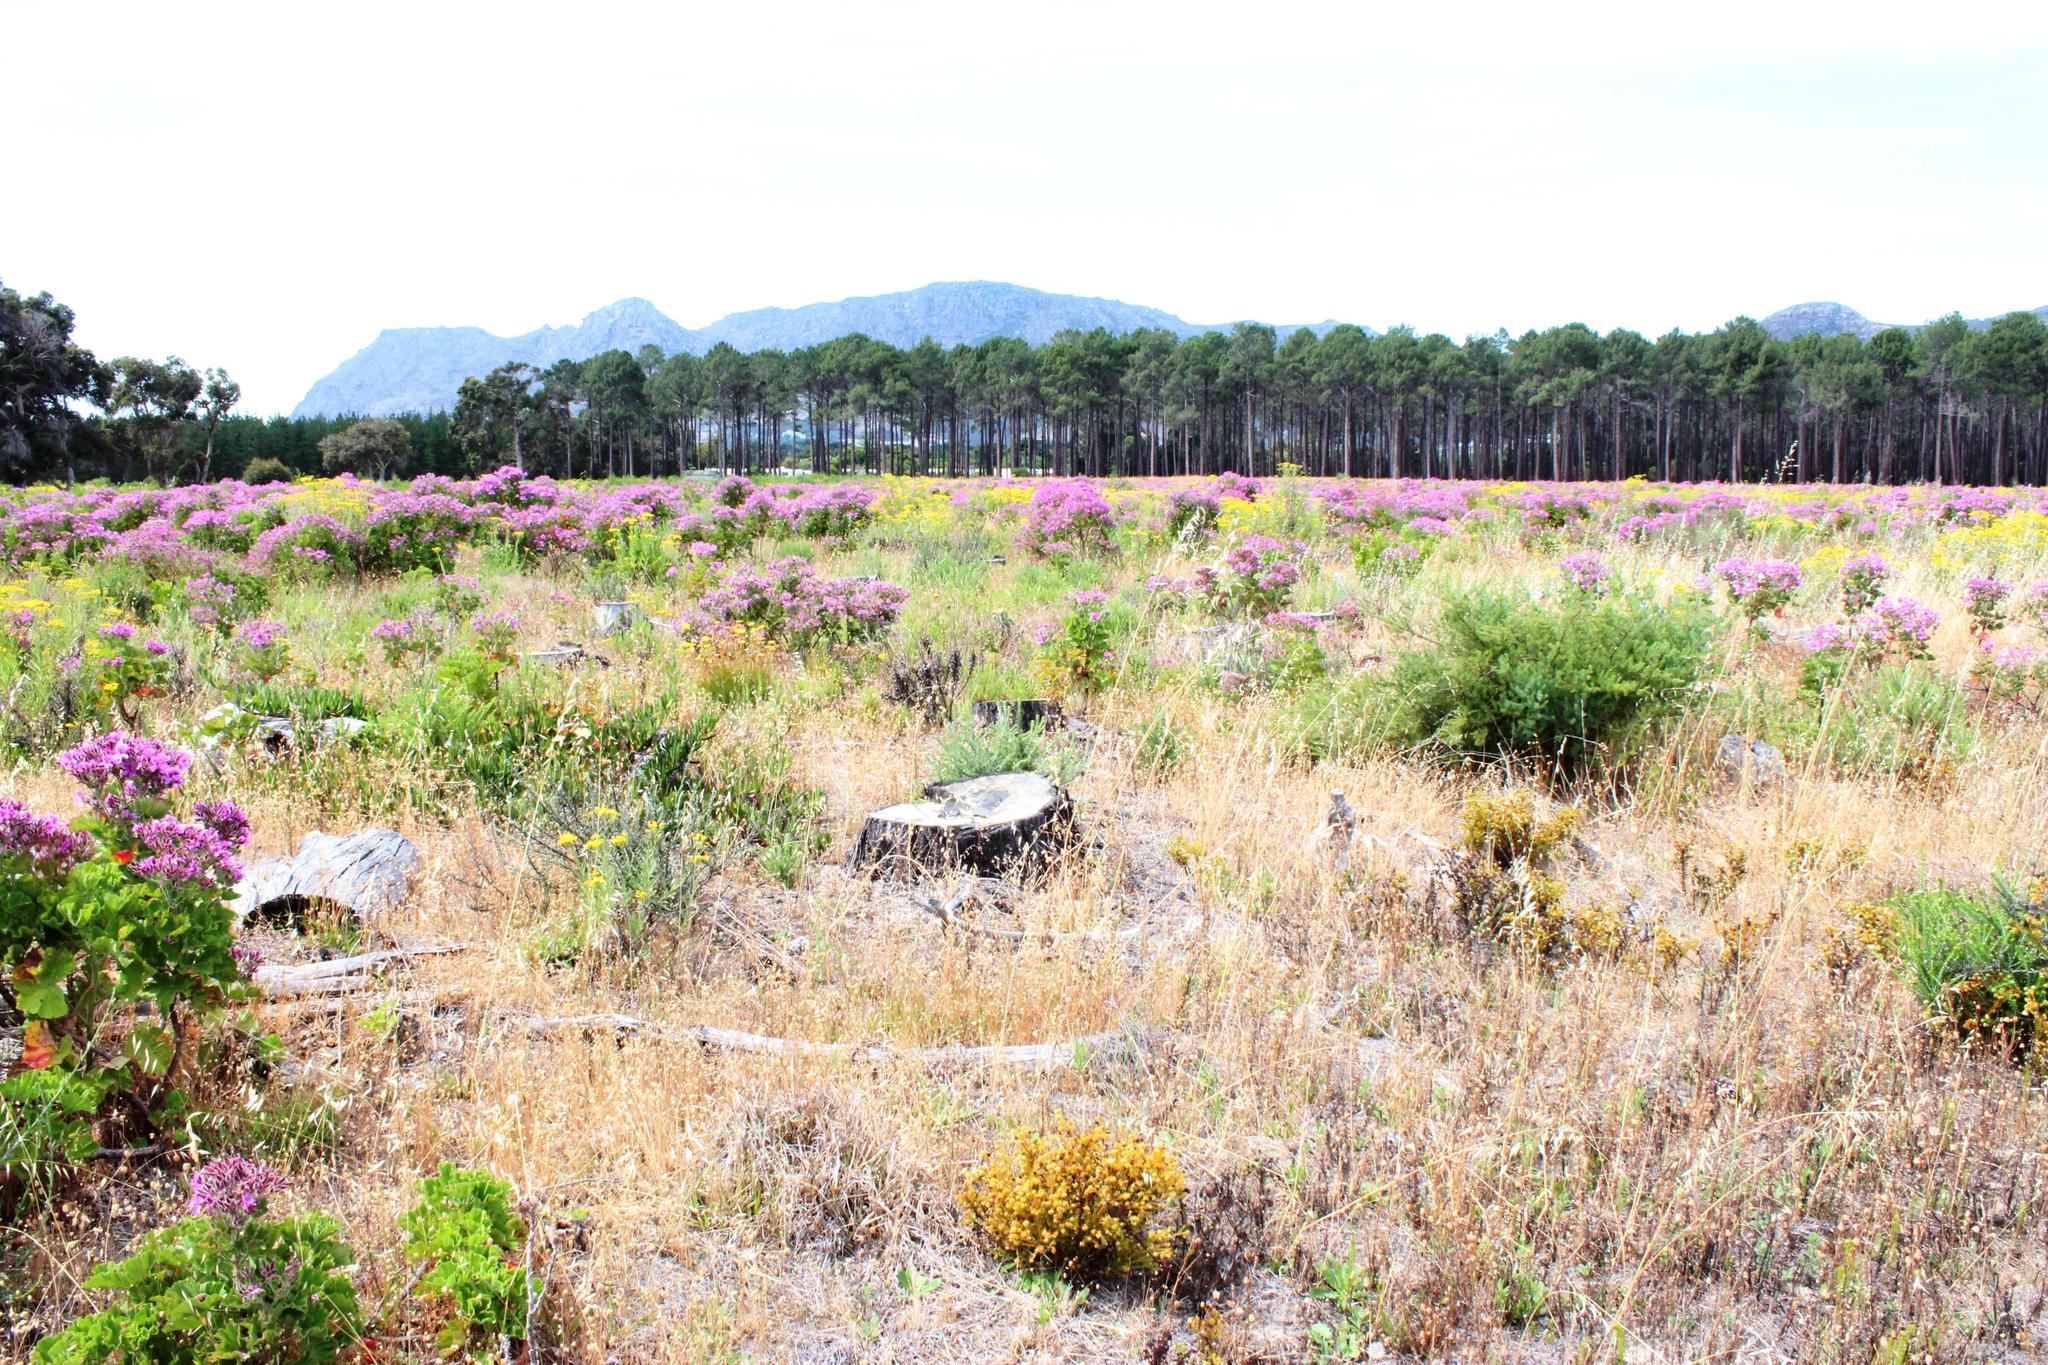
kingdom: Plantae
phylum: Tracheophyta
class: Magnoliopsida
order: Geraniales
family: Geraniaceae
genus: Pelargonium
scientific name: Pelargonium cucullatum
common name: Tree pelargonium
